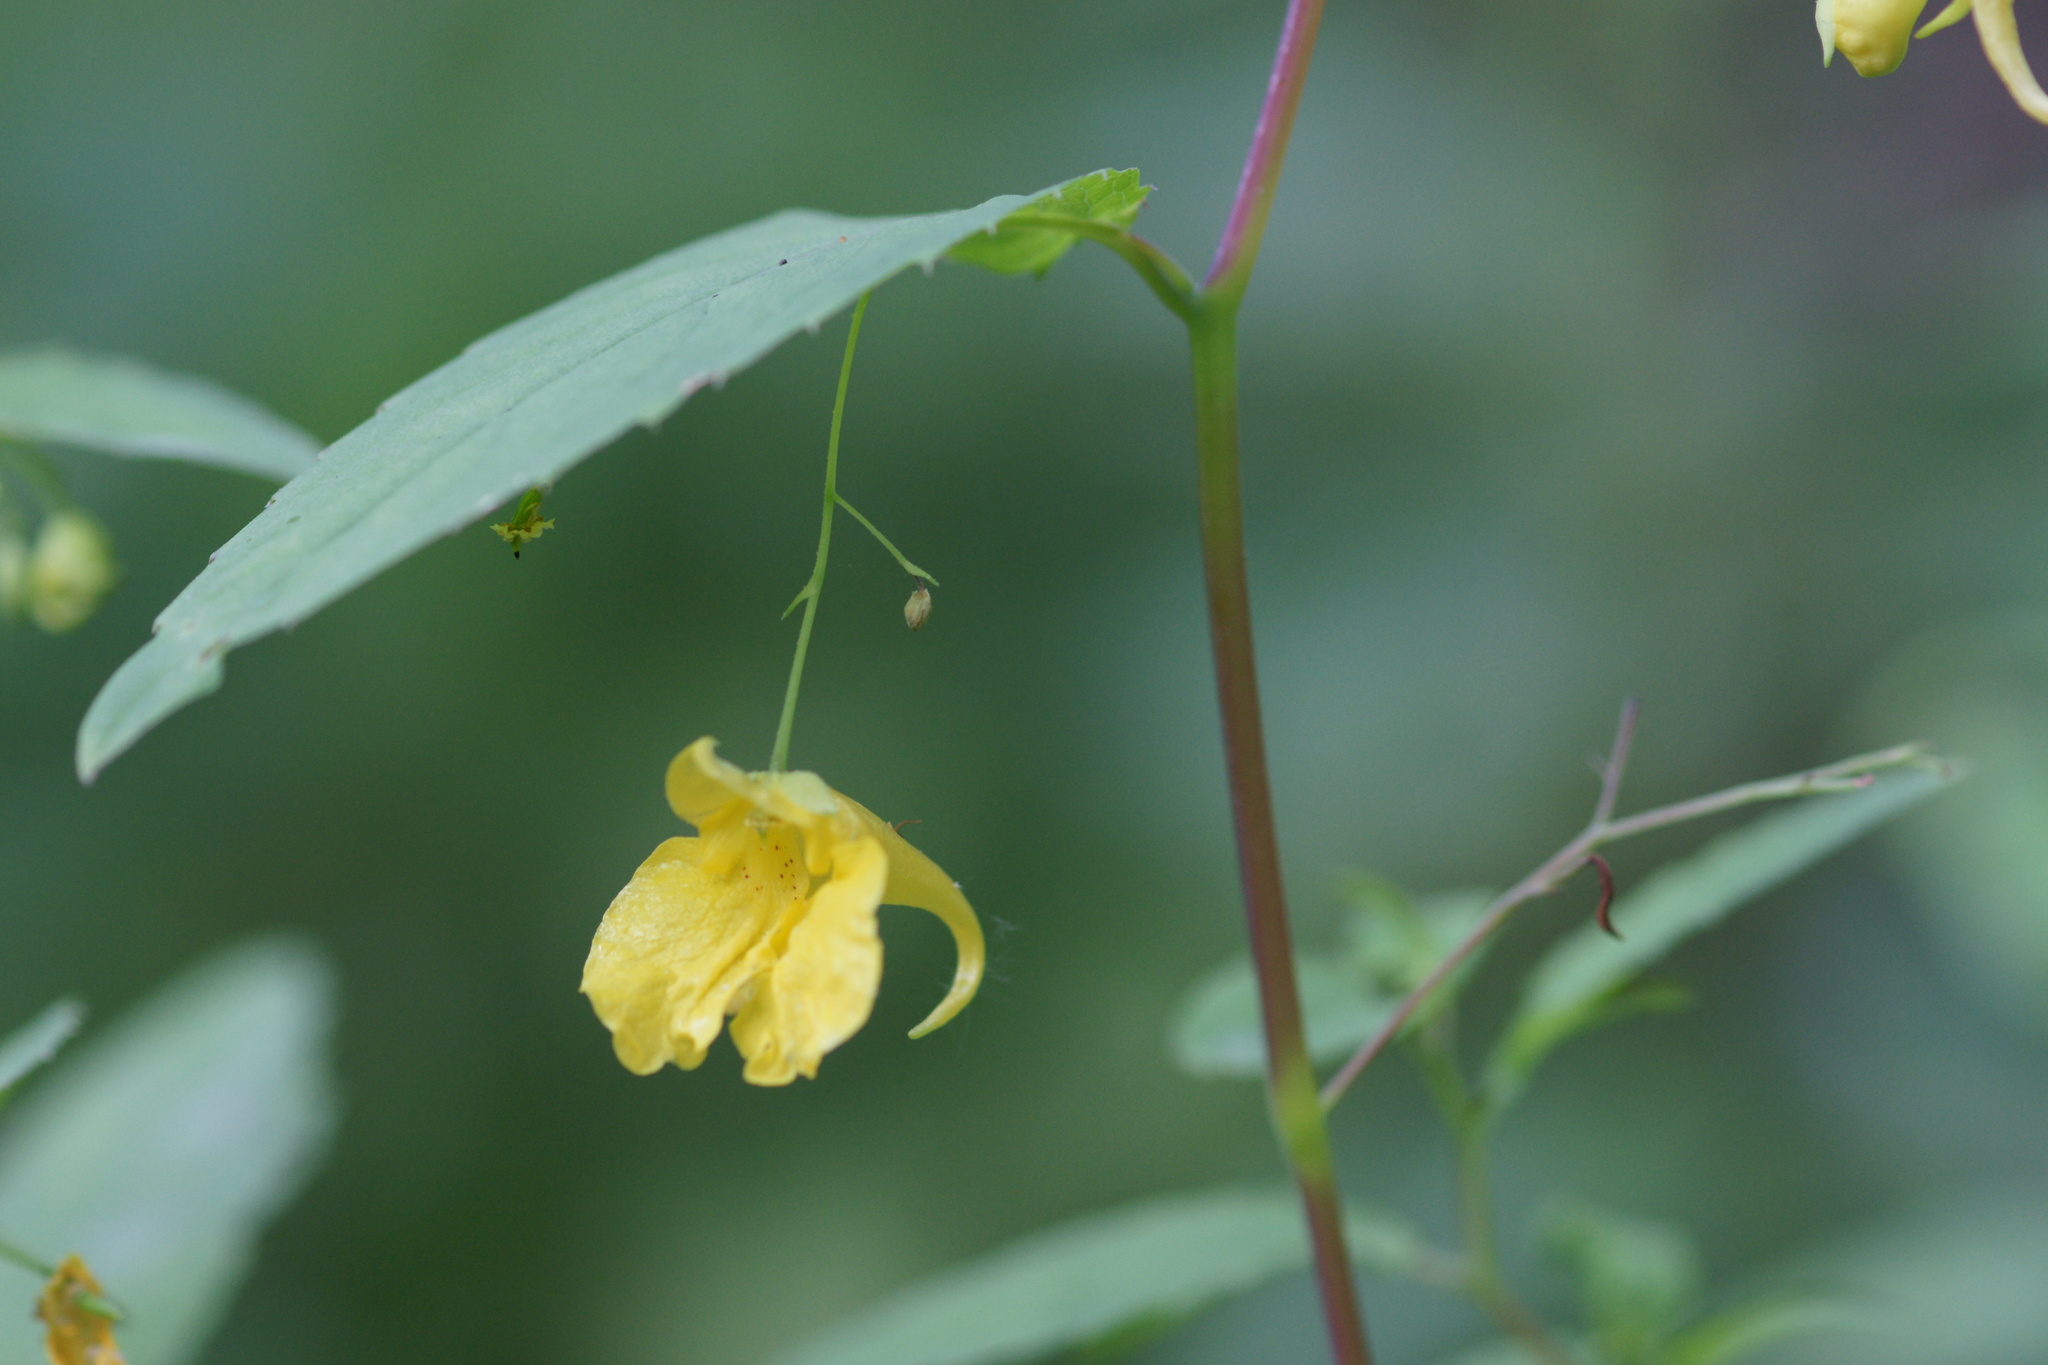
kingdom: Plantae
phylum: Tracheophyta
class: Magnoliopsida
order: Ericales
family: Balsaminaceae
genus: Impatiens
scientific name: Impatiens noli-tangere
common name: Touch-me-not balsam
